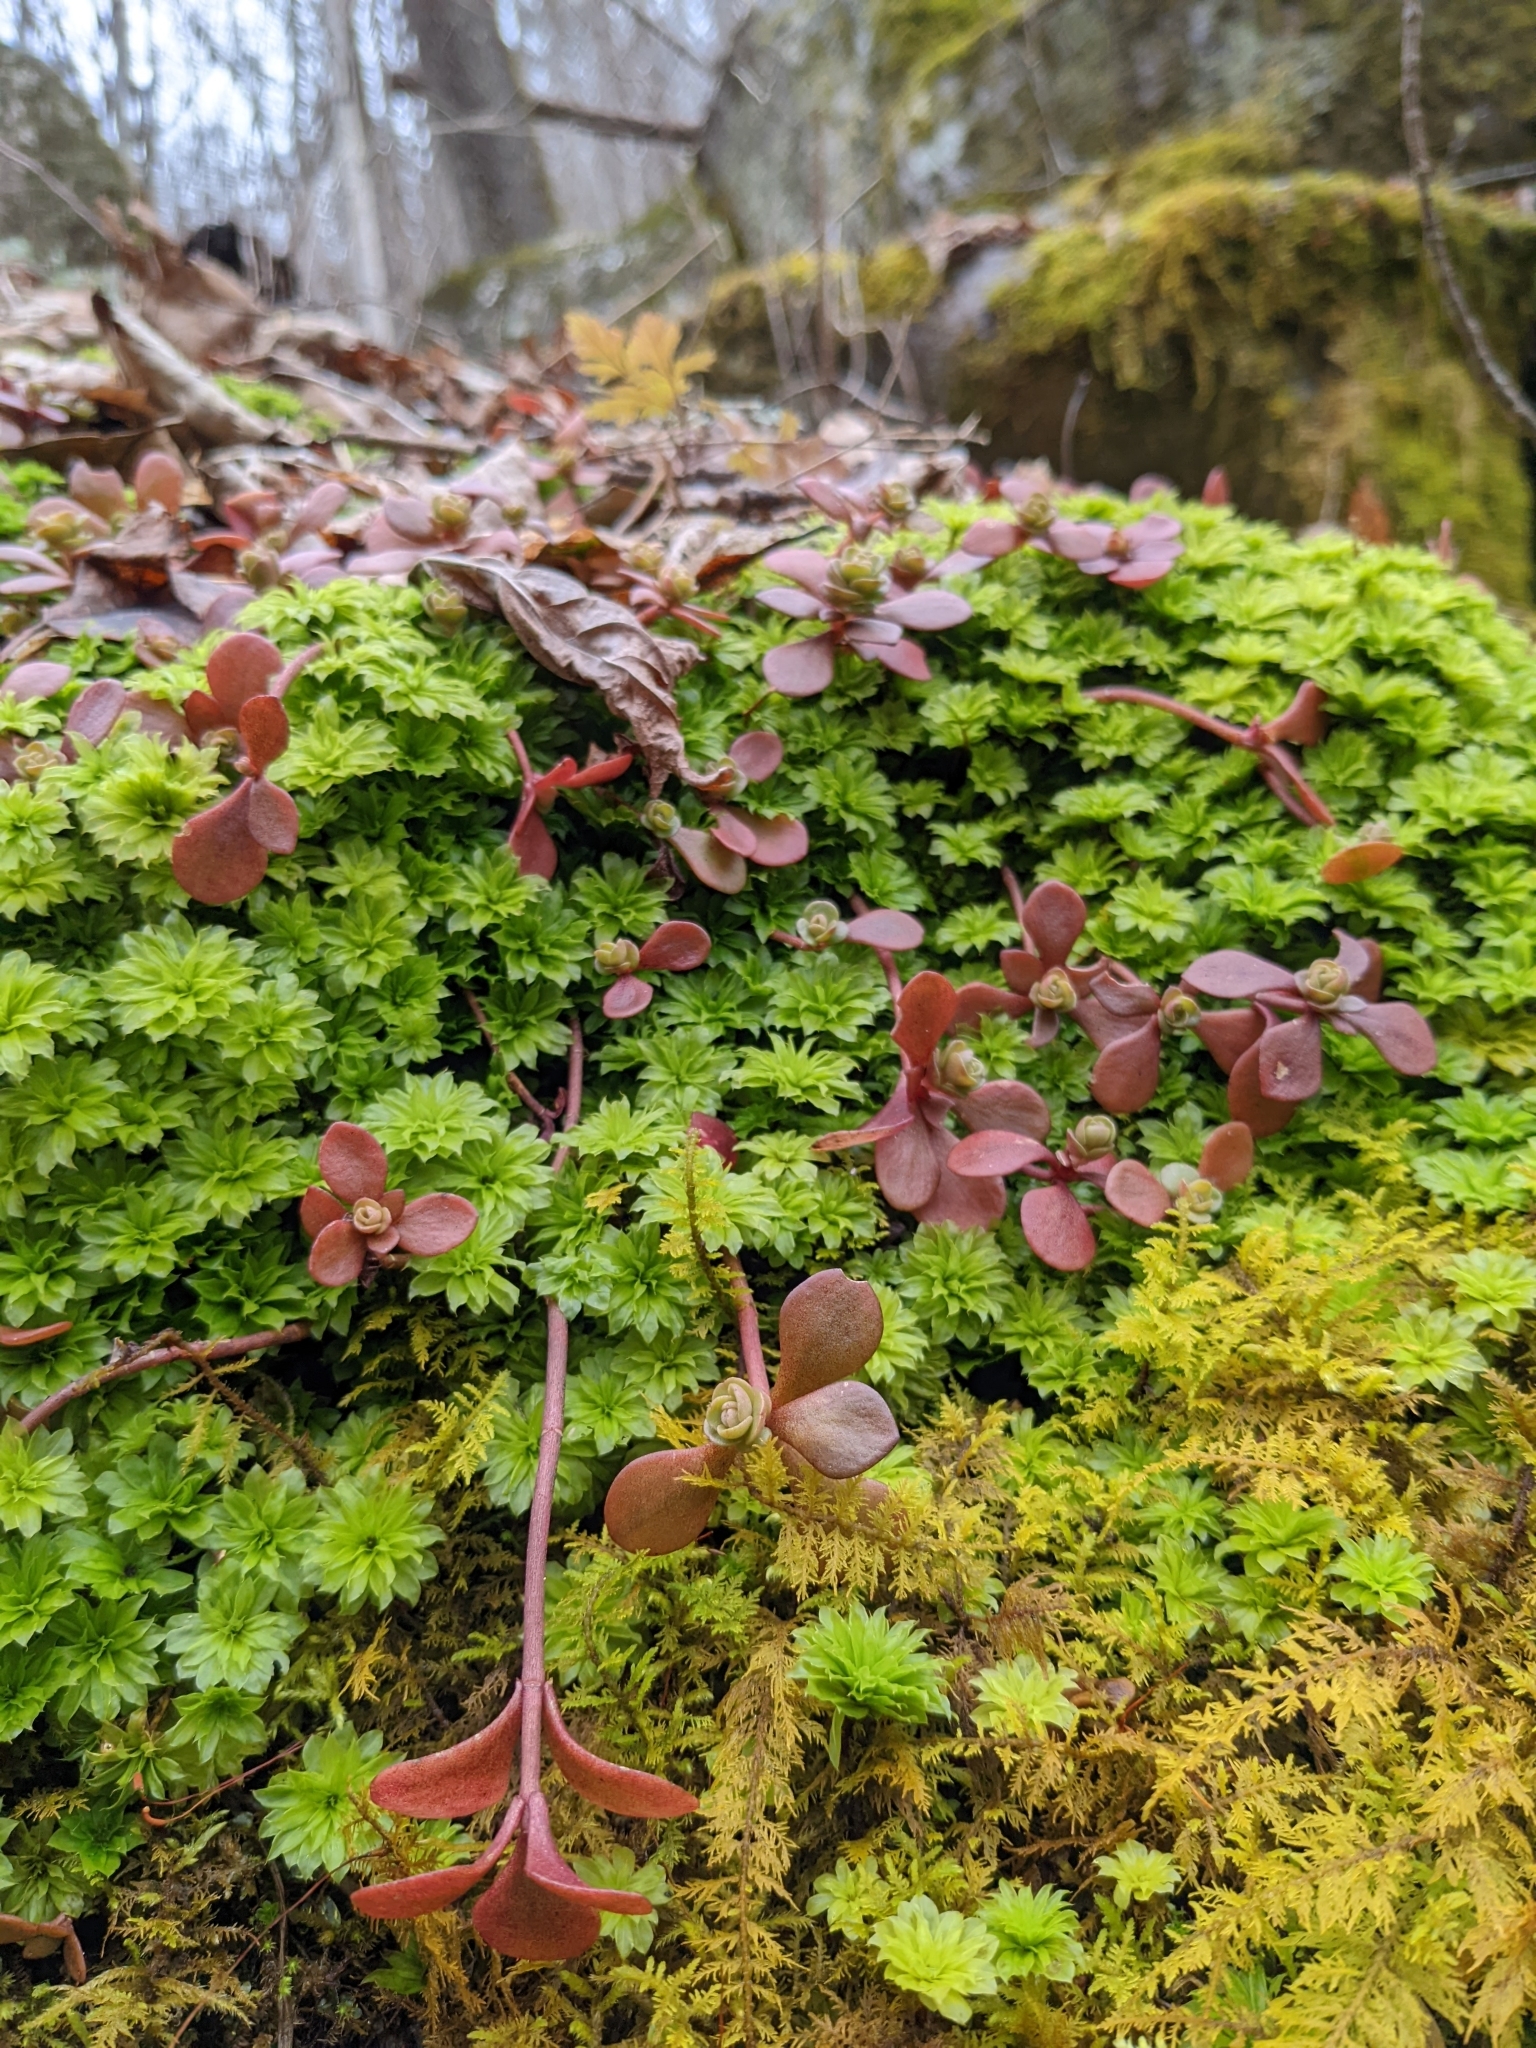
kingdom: Plantae
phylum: Tracheophyta
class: Magnoliopsida
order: Saxifragales
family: Crassulaceae
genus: Sedum
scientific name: Sedum ternatum
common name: Wild stonecrop
